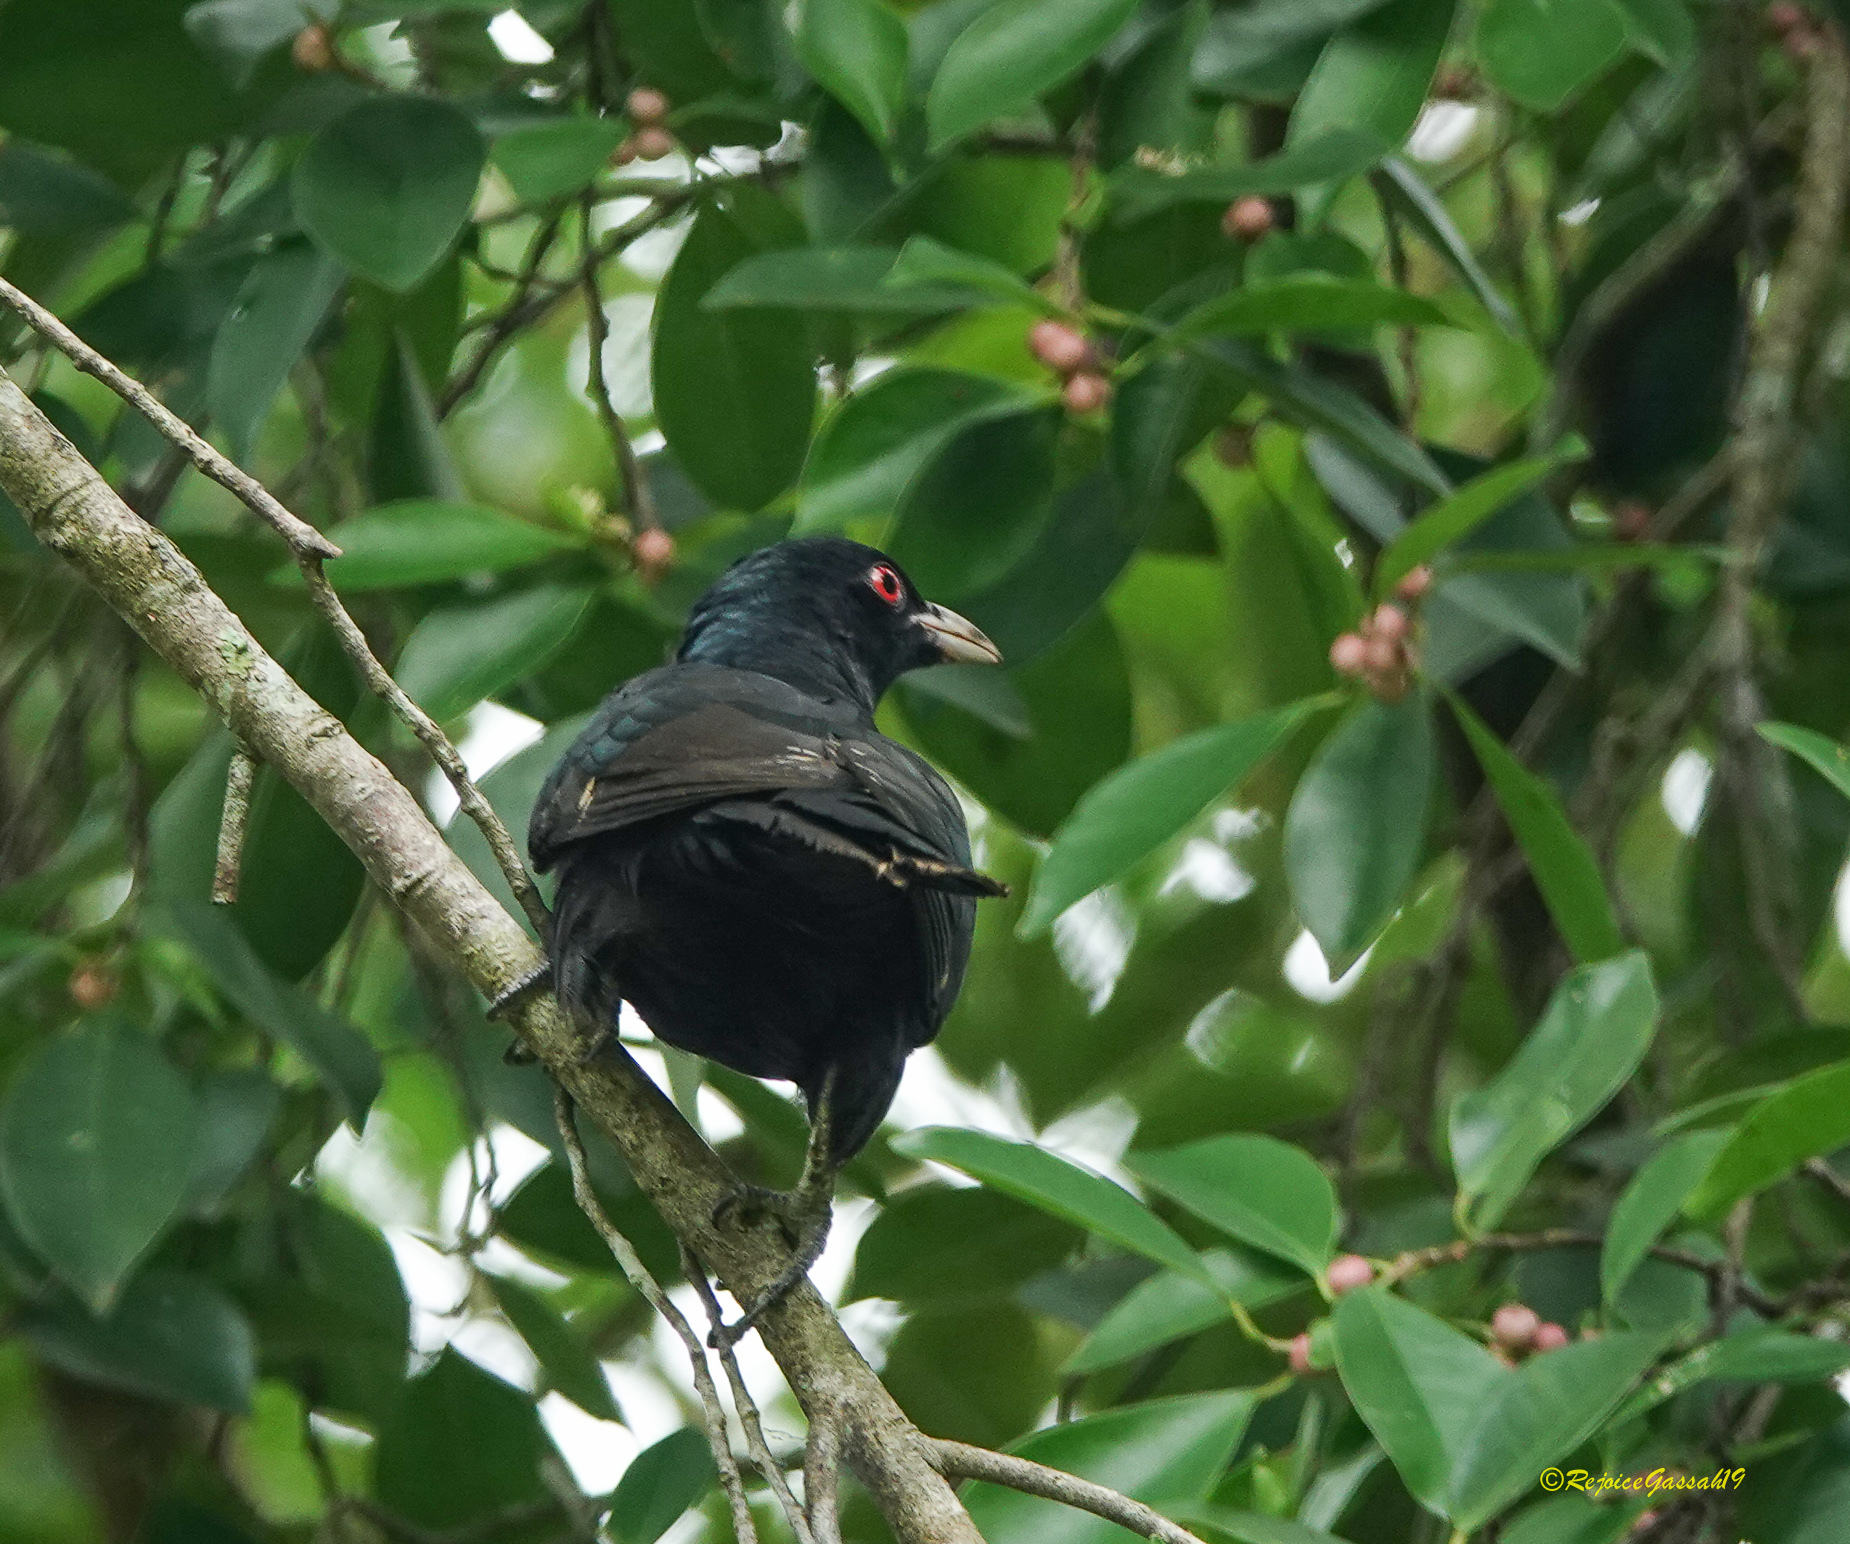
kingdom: Animalia
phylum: Chordata
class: Aves
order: Cuculiformes
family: Cuculidae
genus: Eudynamys
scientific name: Eudynamys scolopaceus
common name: Asian koel
